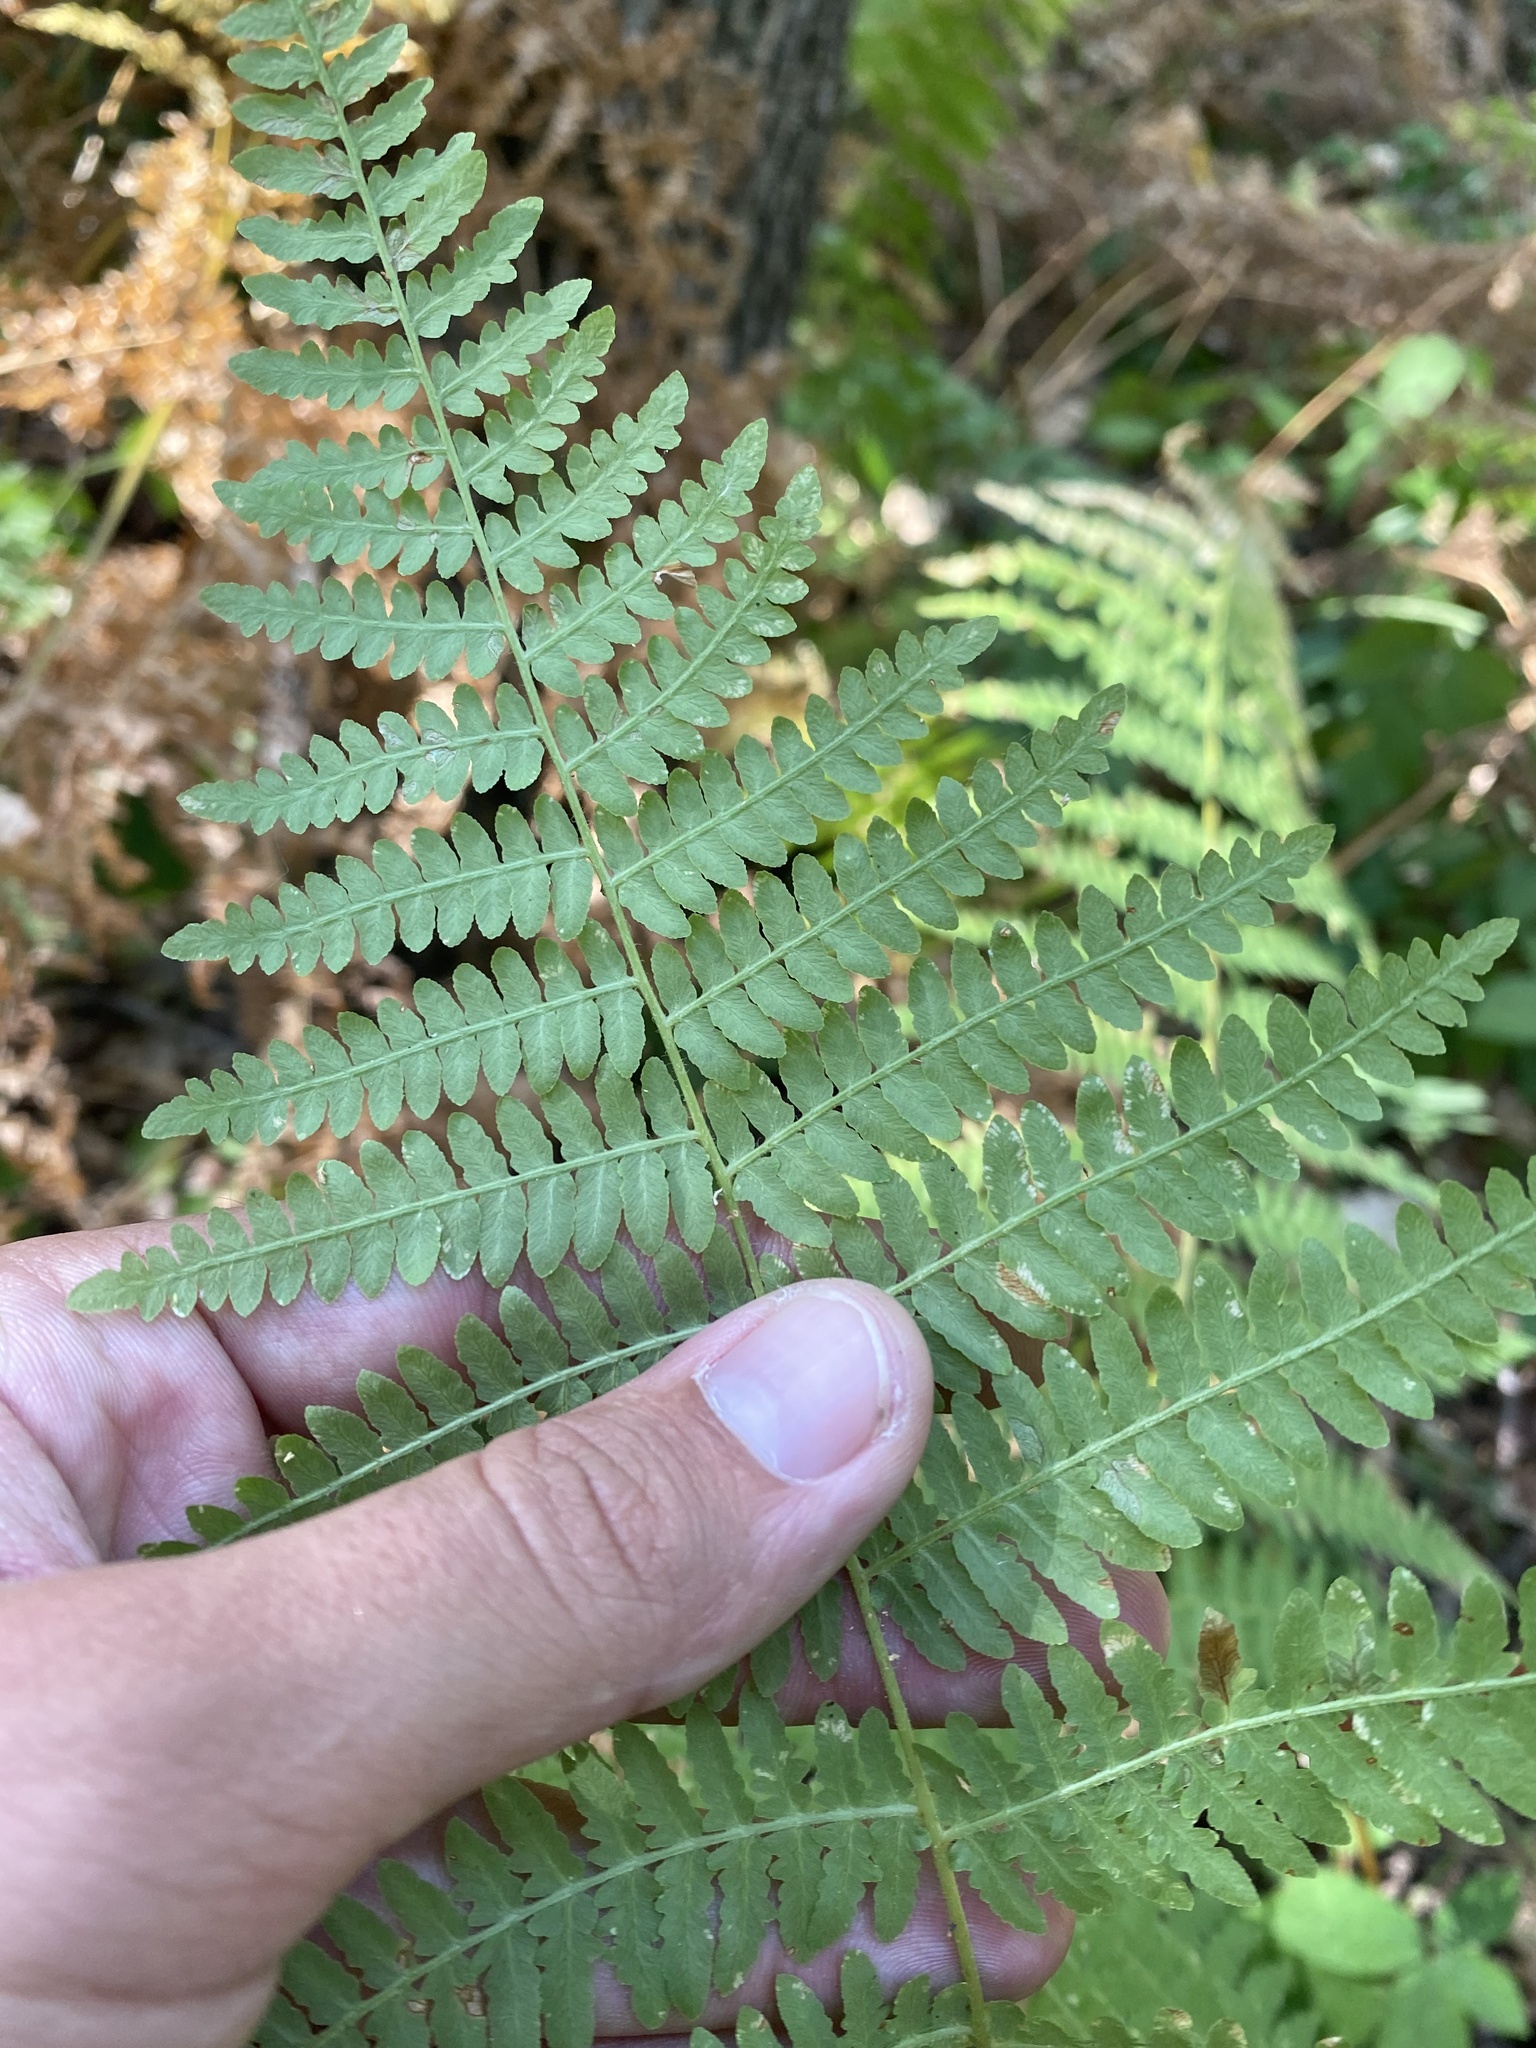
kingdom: Plantae
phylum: Tracheophyta
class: Polypodiopsida
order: Polypodiales
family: Dennstaedtiaceae
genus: Pteridium
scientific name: Pteridium tauricum
